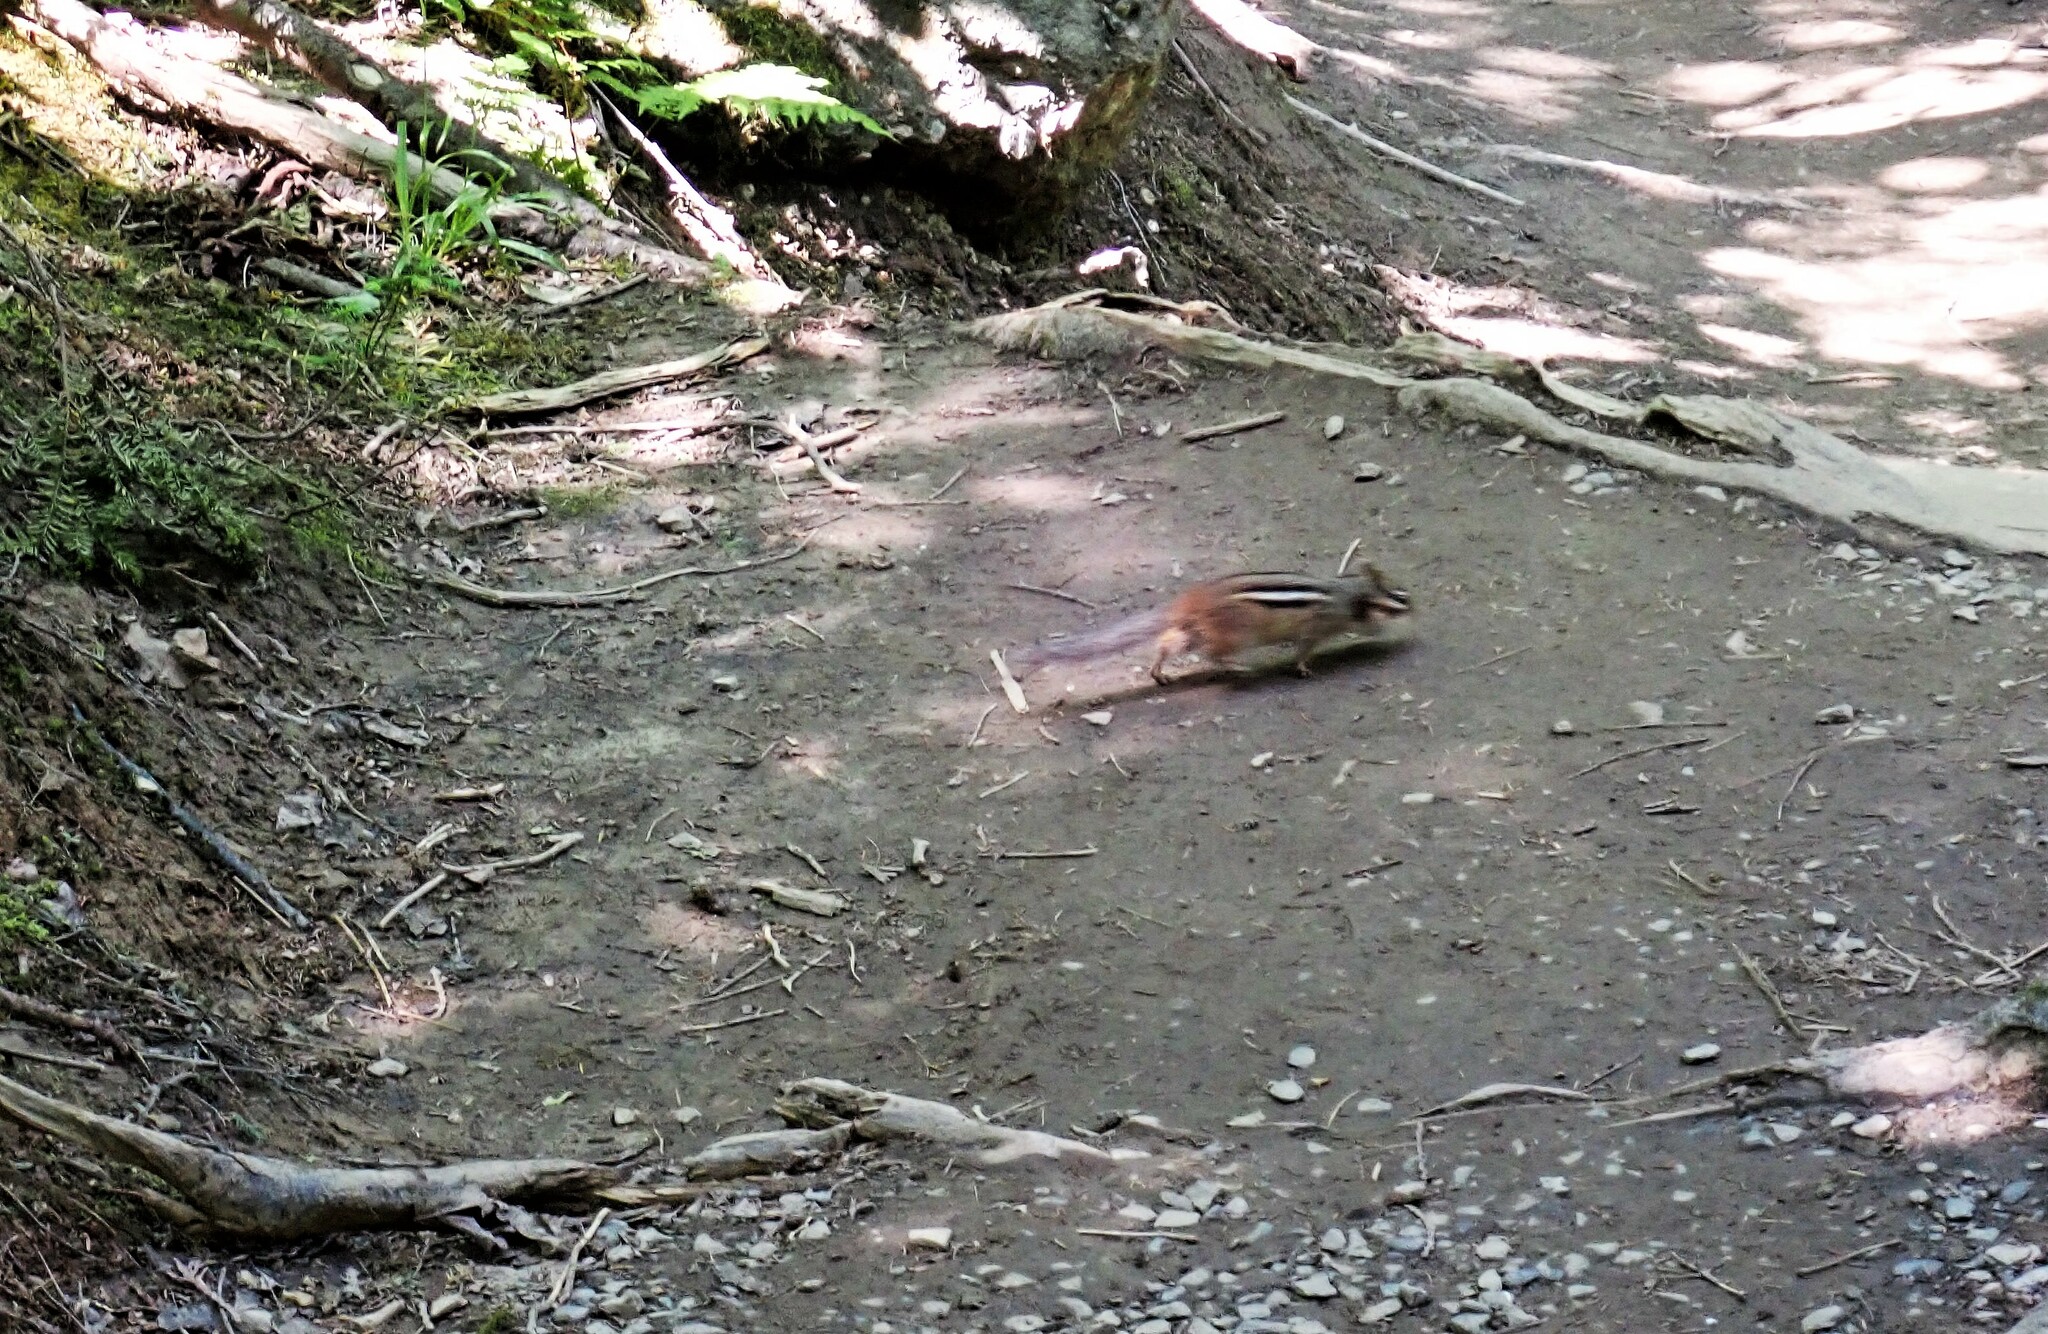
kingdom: Animalia
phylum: Chordata
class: Mammalia
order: Rodentia
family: Sciuridae
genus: Tamias
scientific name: Tamias striatus
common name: Eastern chipmunk
